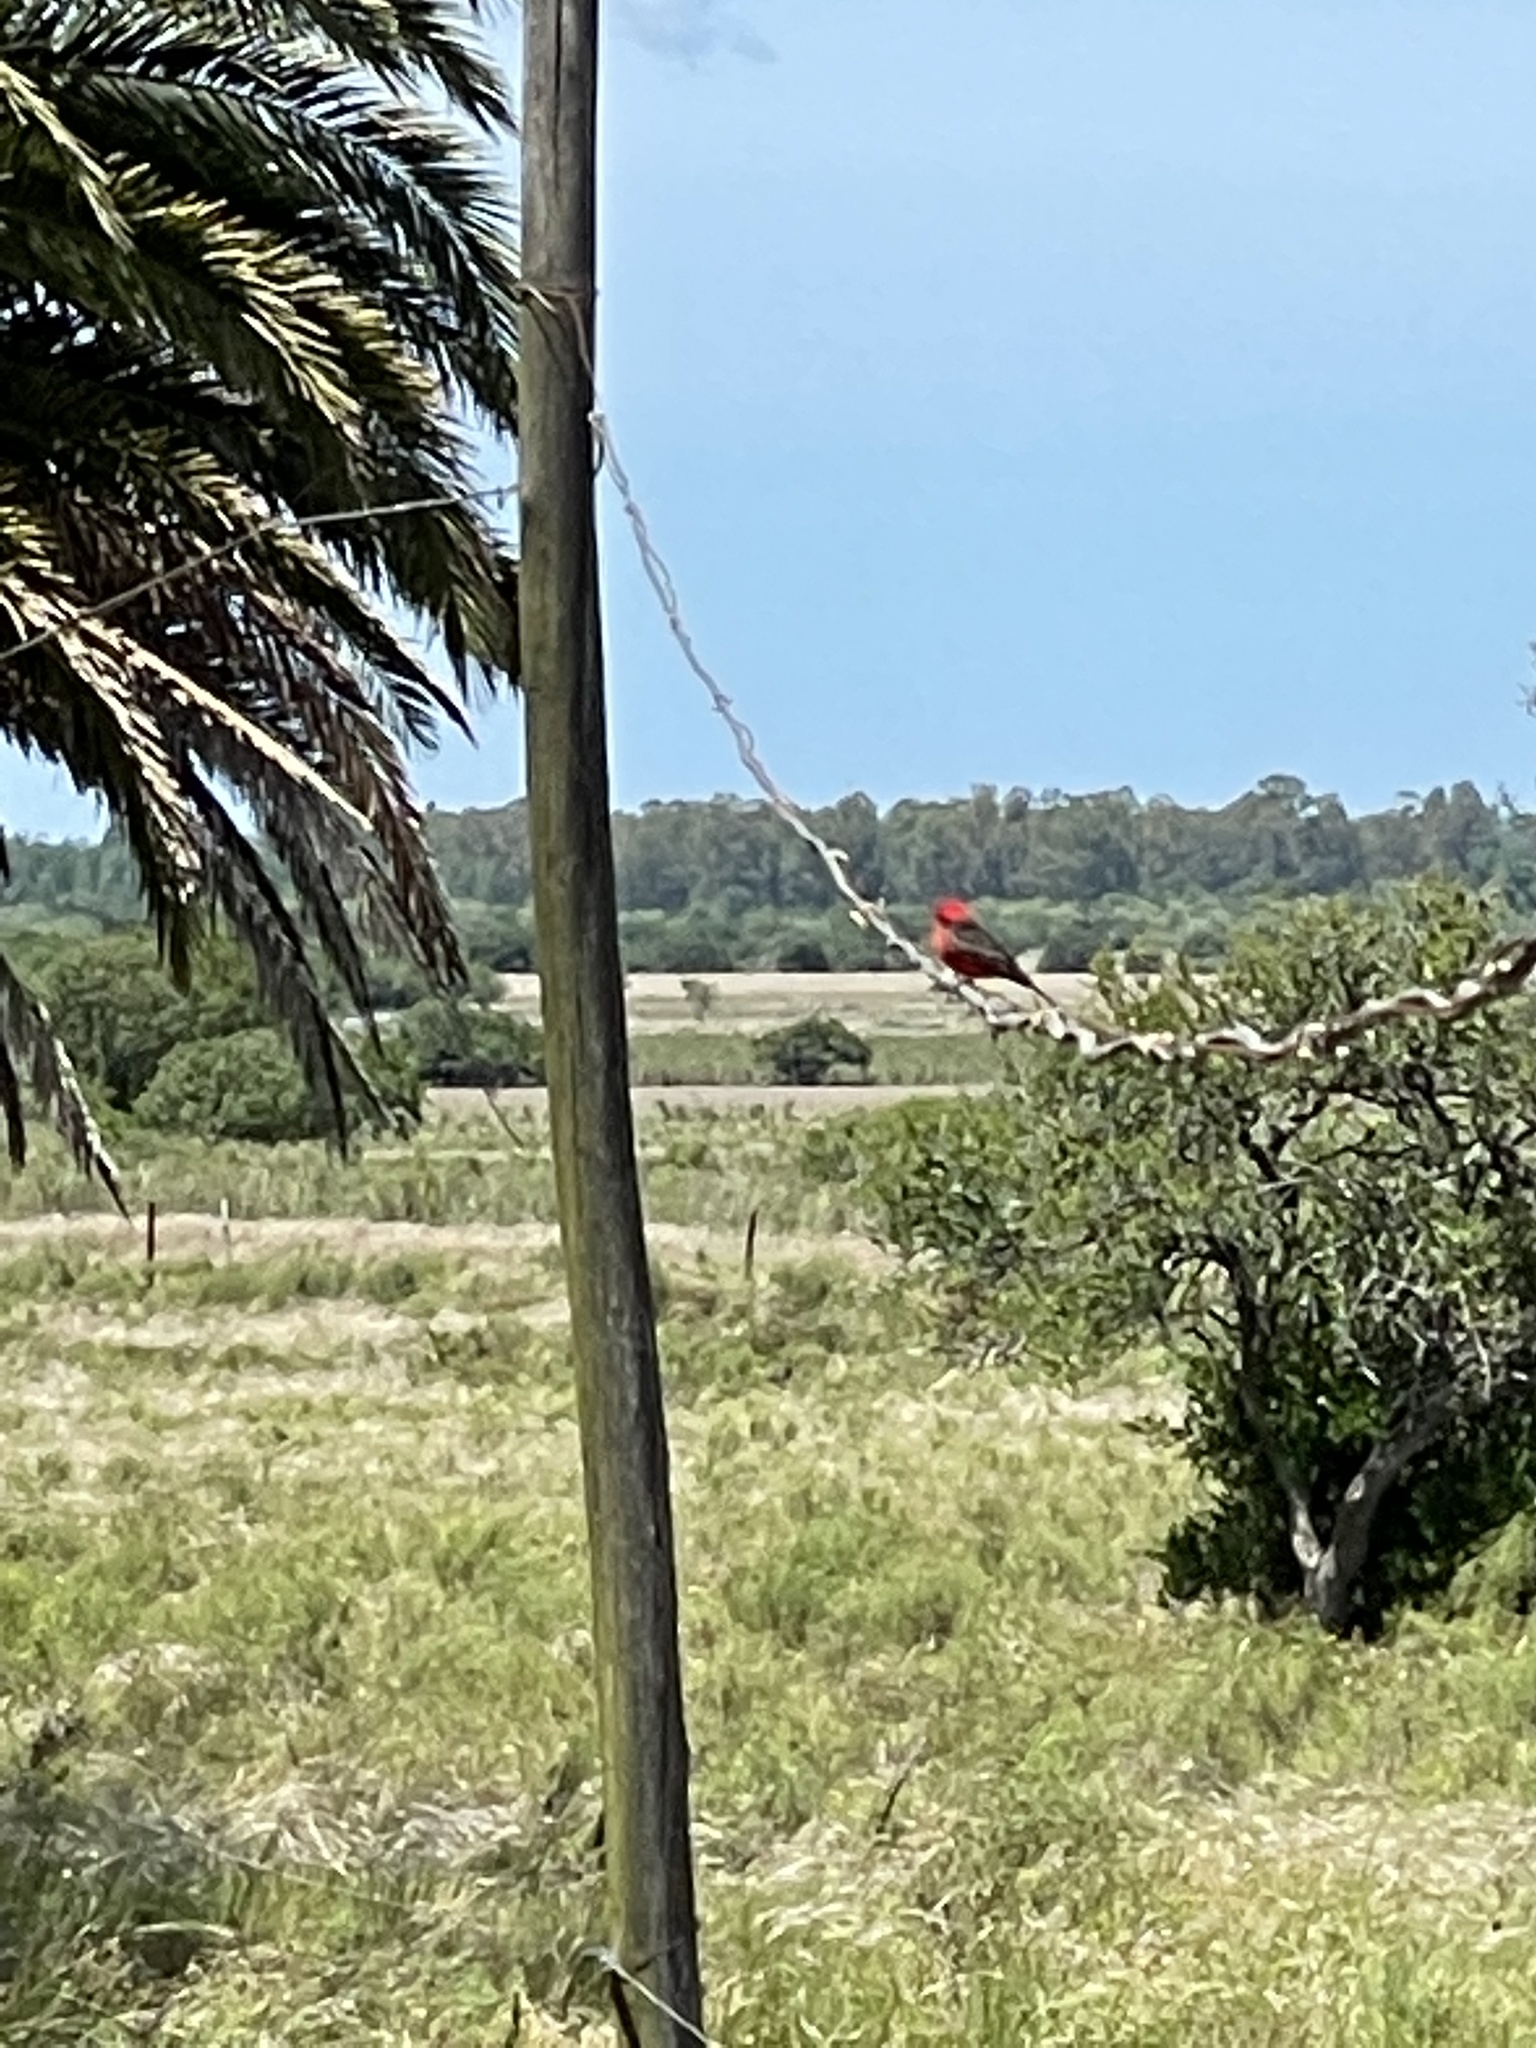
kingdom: Animalia
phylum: Chordata
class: Aves
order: Passeriformes
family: Tyrannidae
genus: Pyrocephalus
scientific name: Pyrocephalus rubinus
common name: Vermilion flycatcher
